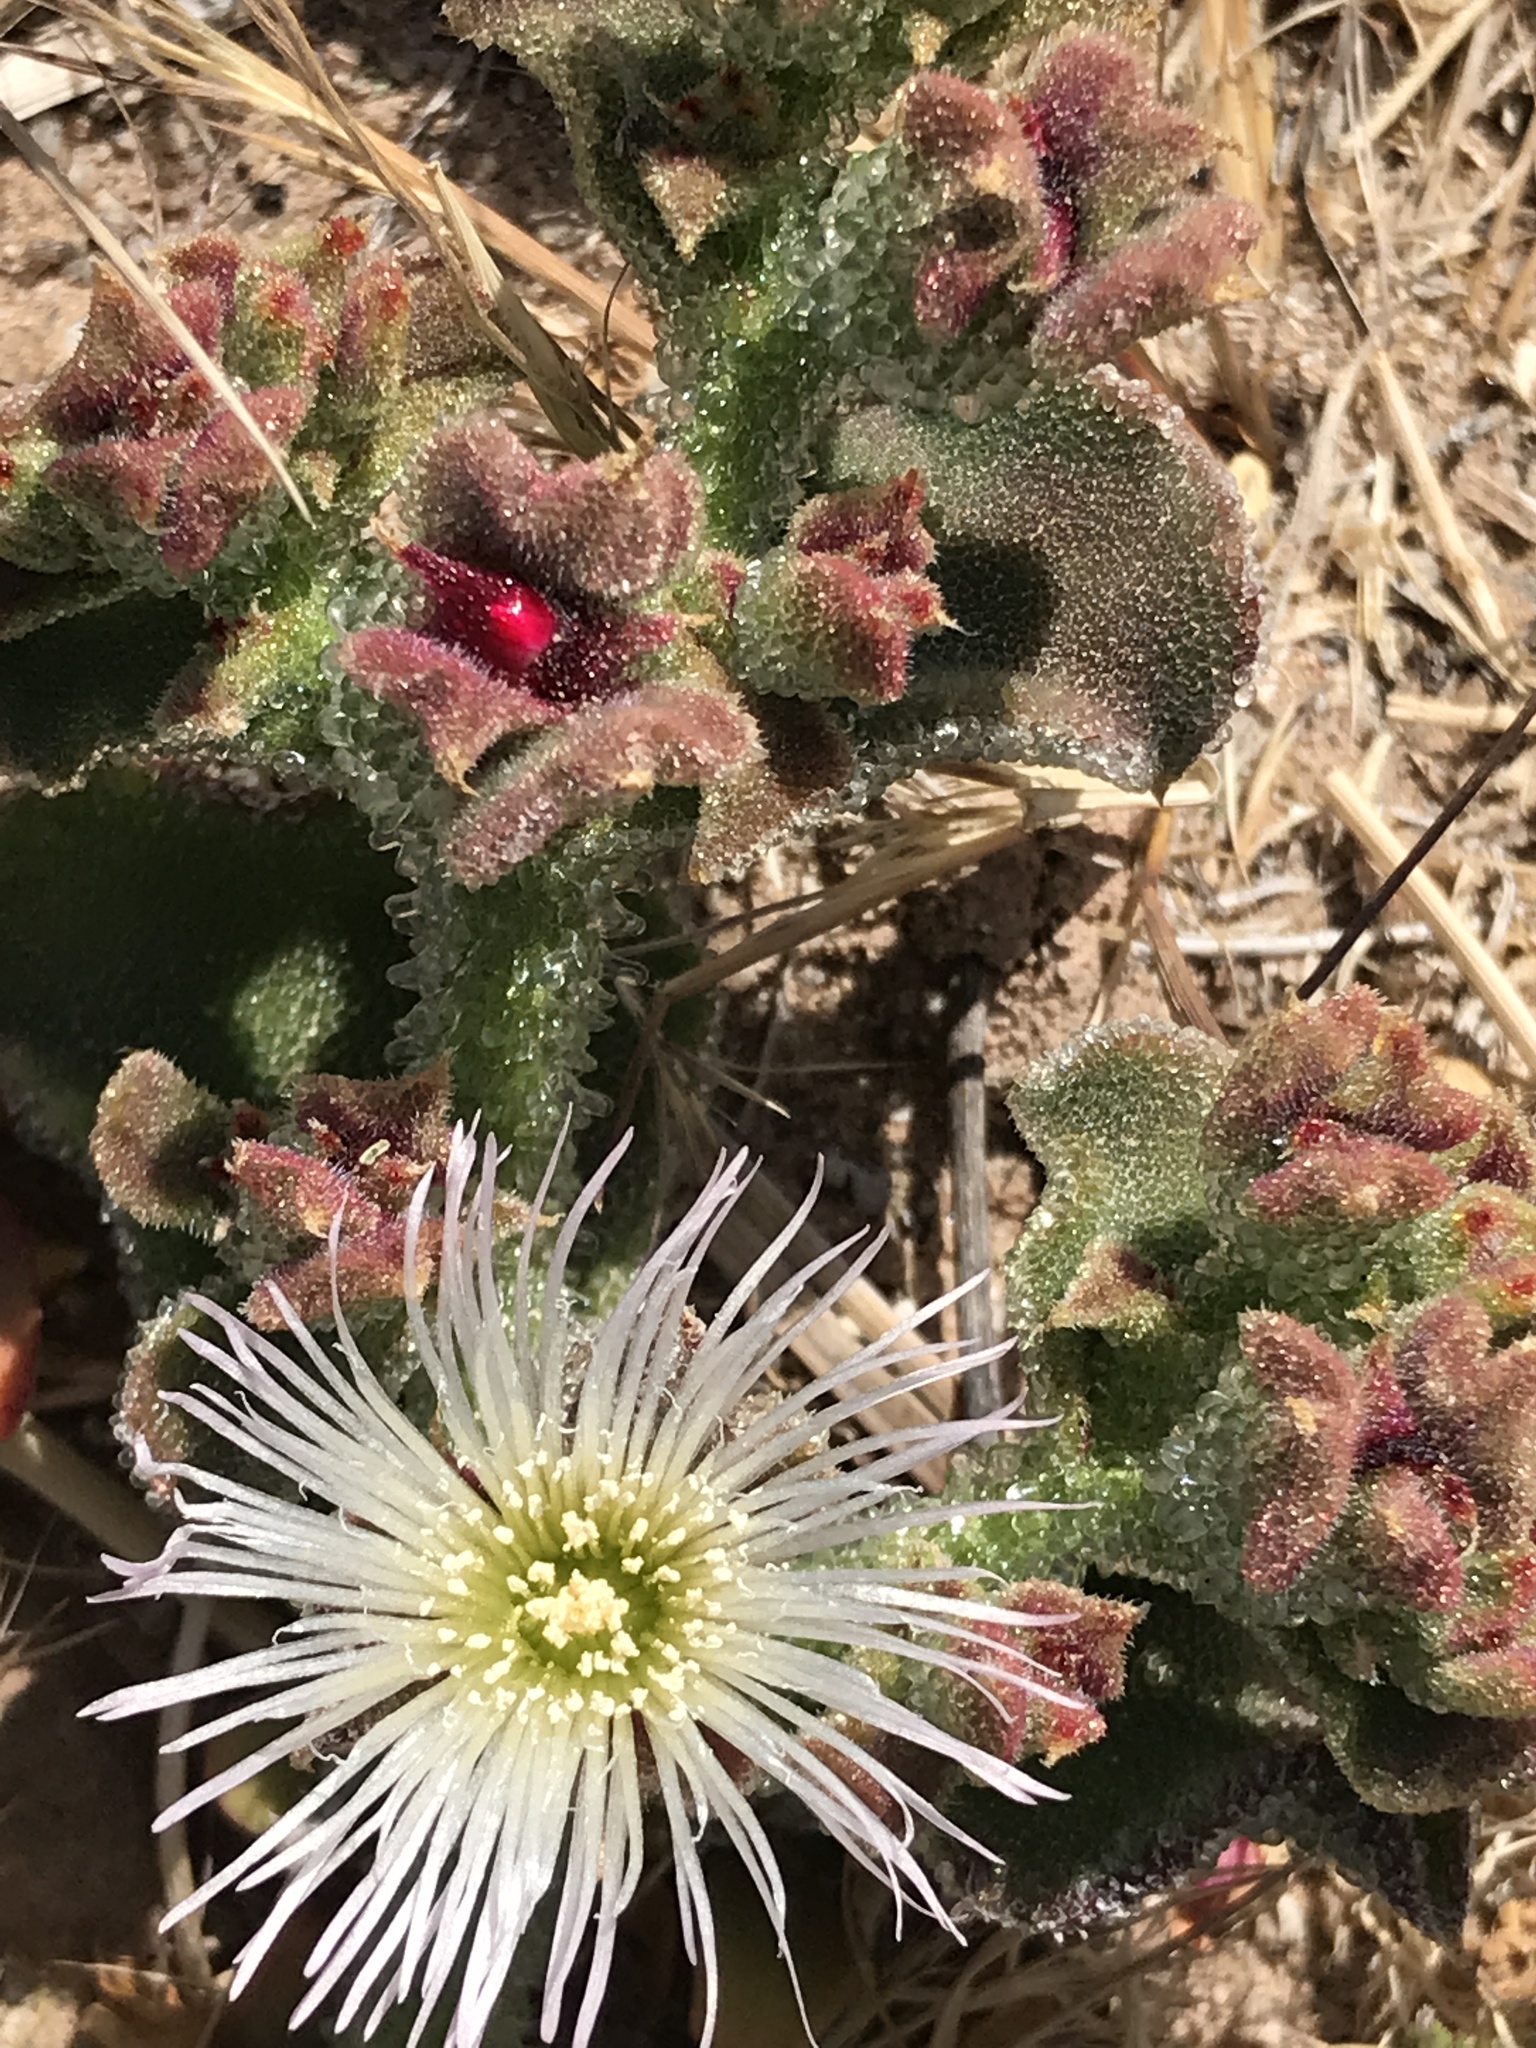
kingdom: Plantae
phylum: Tracheophyta
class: Magnoliopsida
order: Caryophyllales
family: Aizoaceae
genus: Mesembryanthemum
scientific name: Mesembryanthemum crystallinum
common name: Common iceplant
